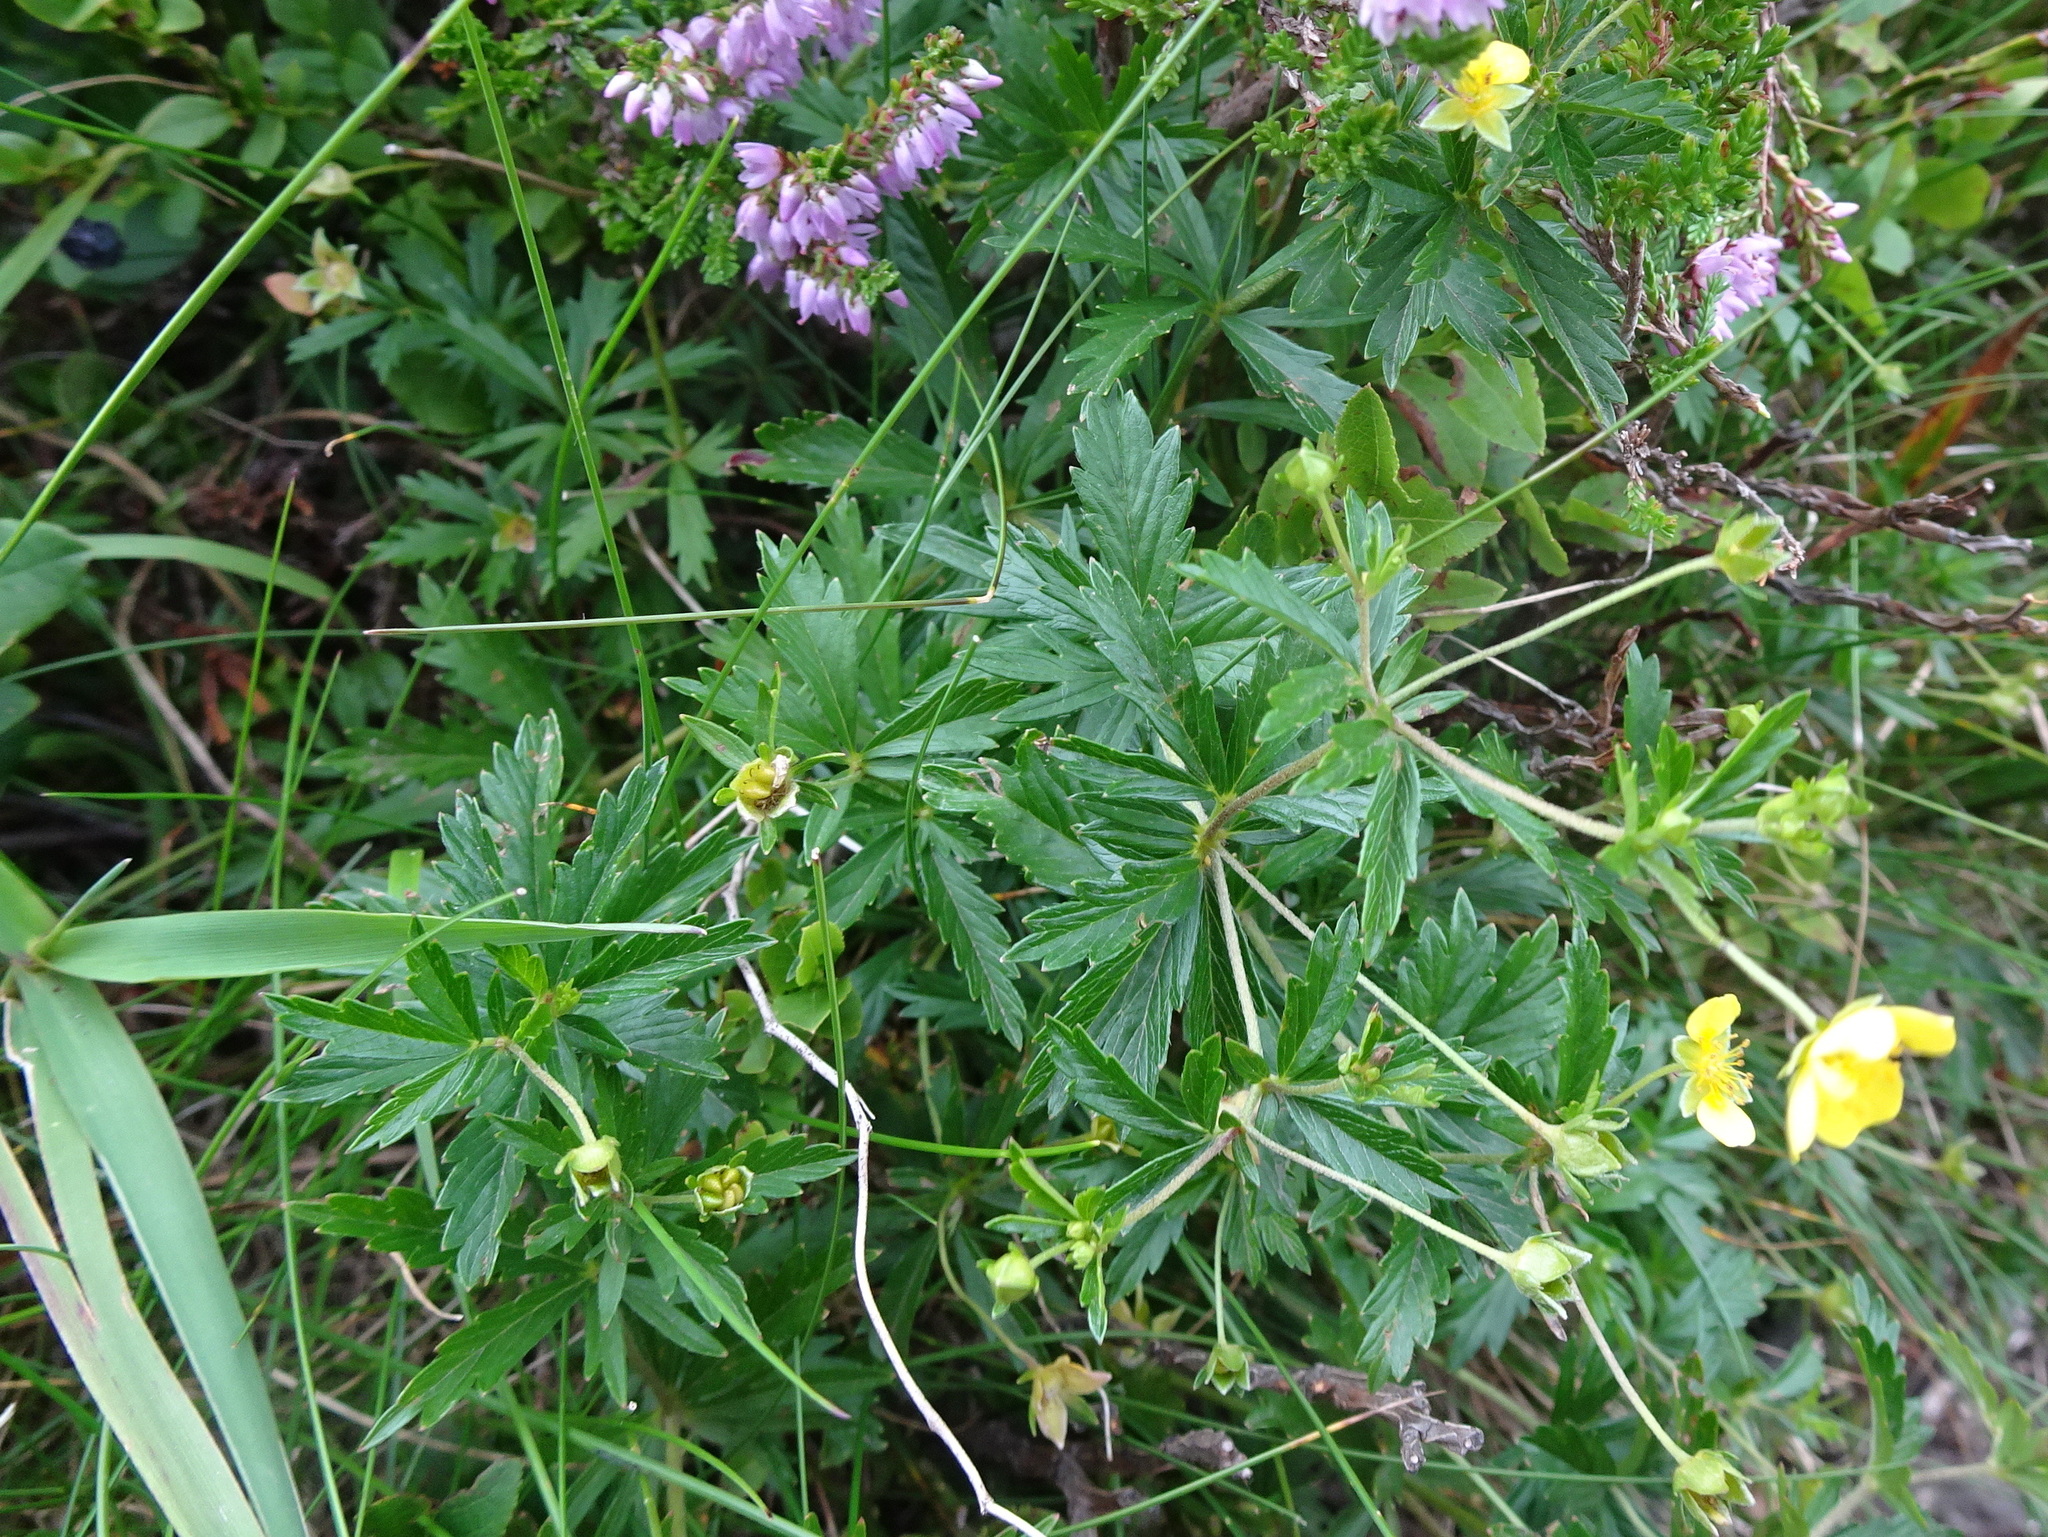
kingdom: Plantae
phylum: Tracheophyta
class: Magnoliopsida
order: Rosales
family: Rosaceae
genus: Potentilla
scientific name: Potentilla erecta
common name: Tormentil
